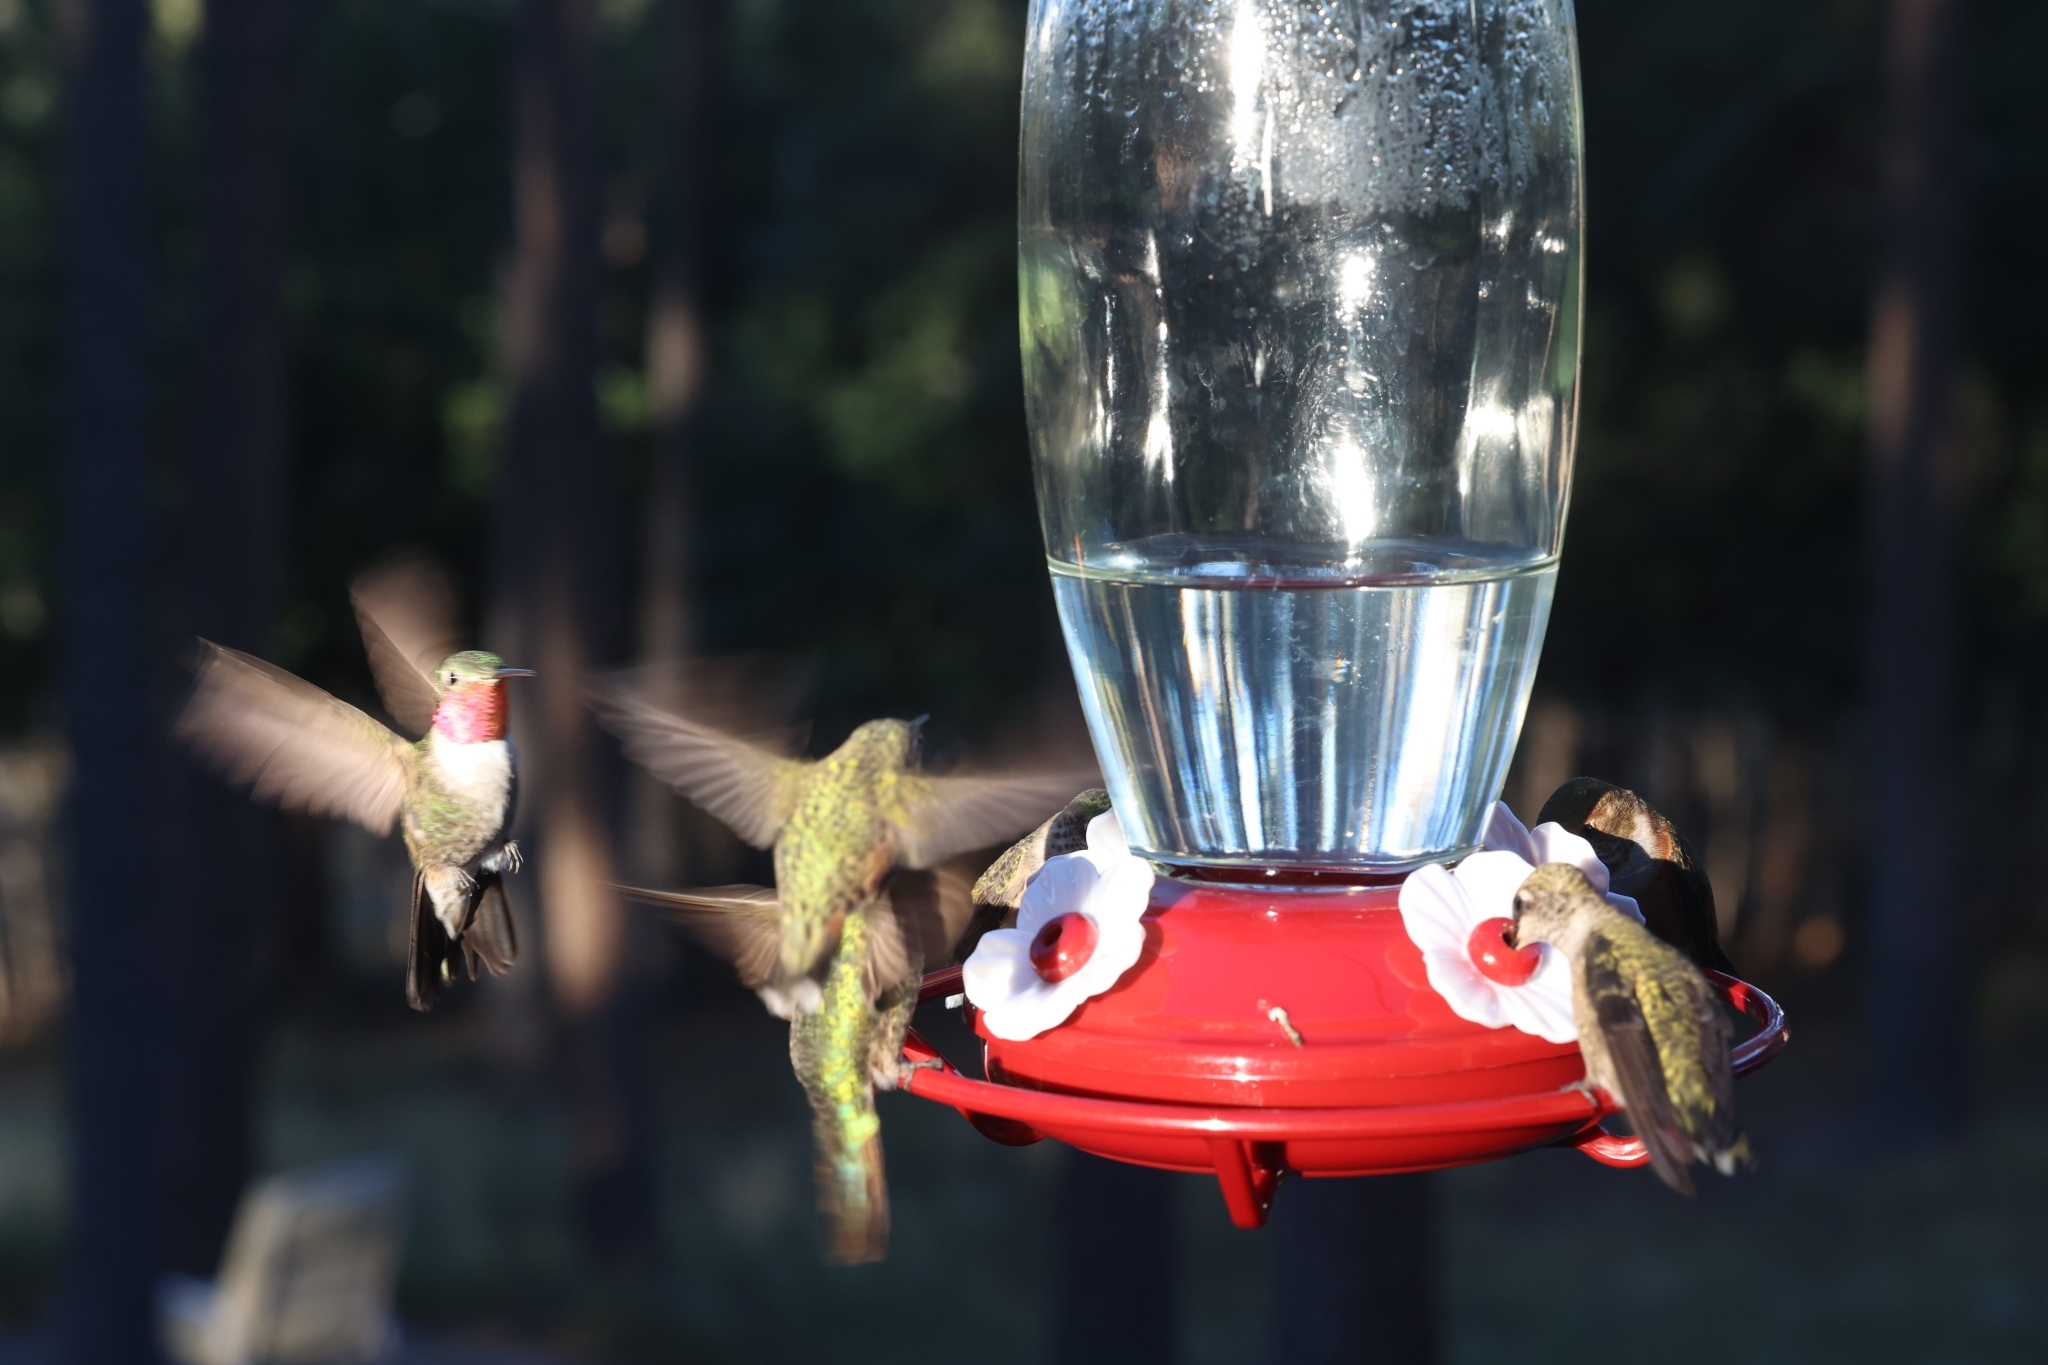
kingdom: Animalia
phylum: Chordata
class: Aves
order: Apodiformes
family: Trochilidae
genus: Selasphorus
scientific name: Selasphorus platycercus
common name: Broad-tailed hummingbird
